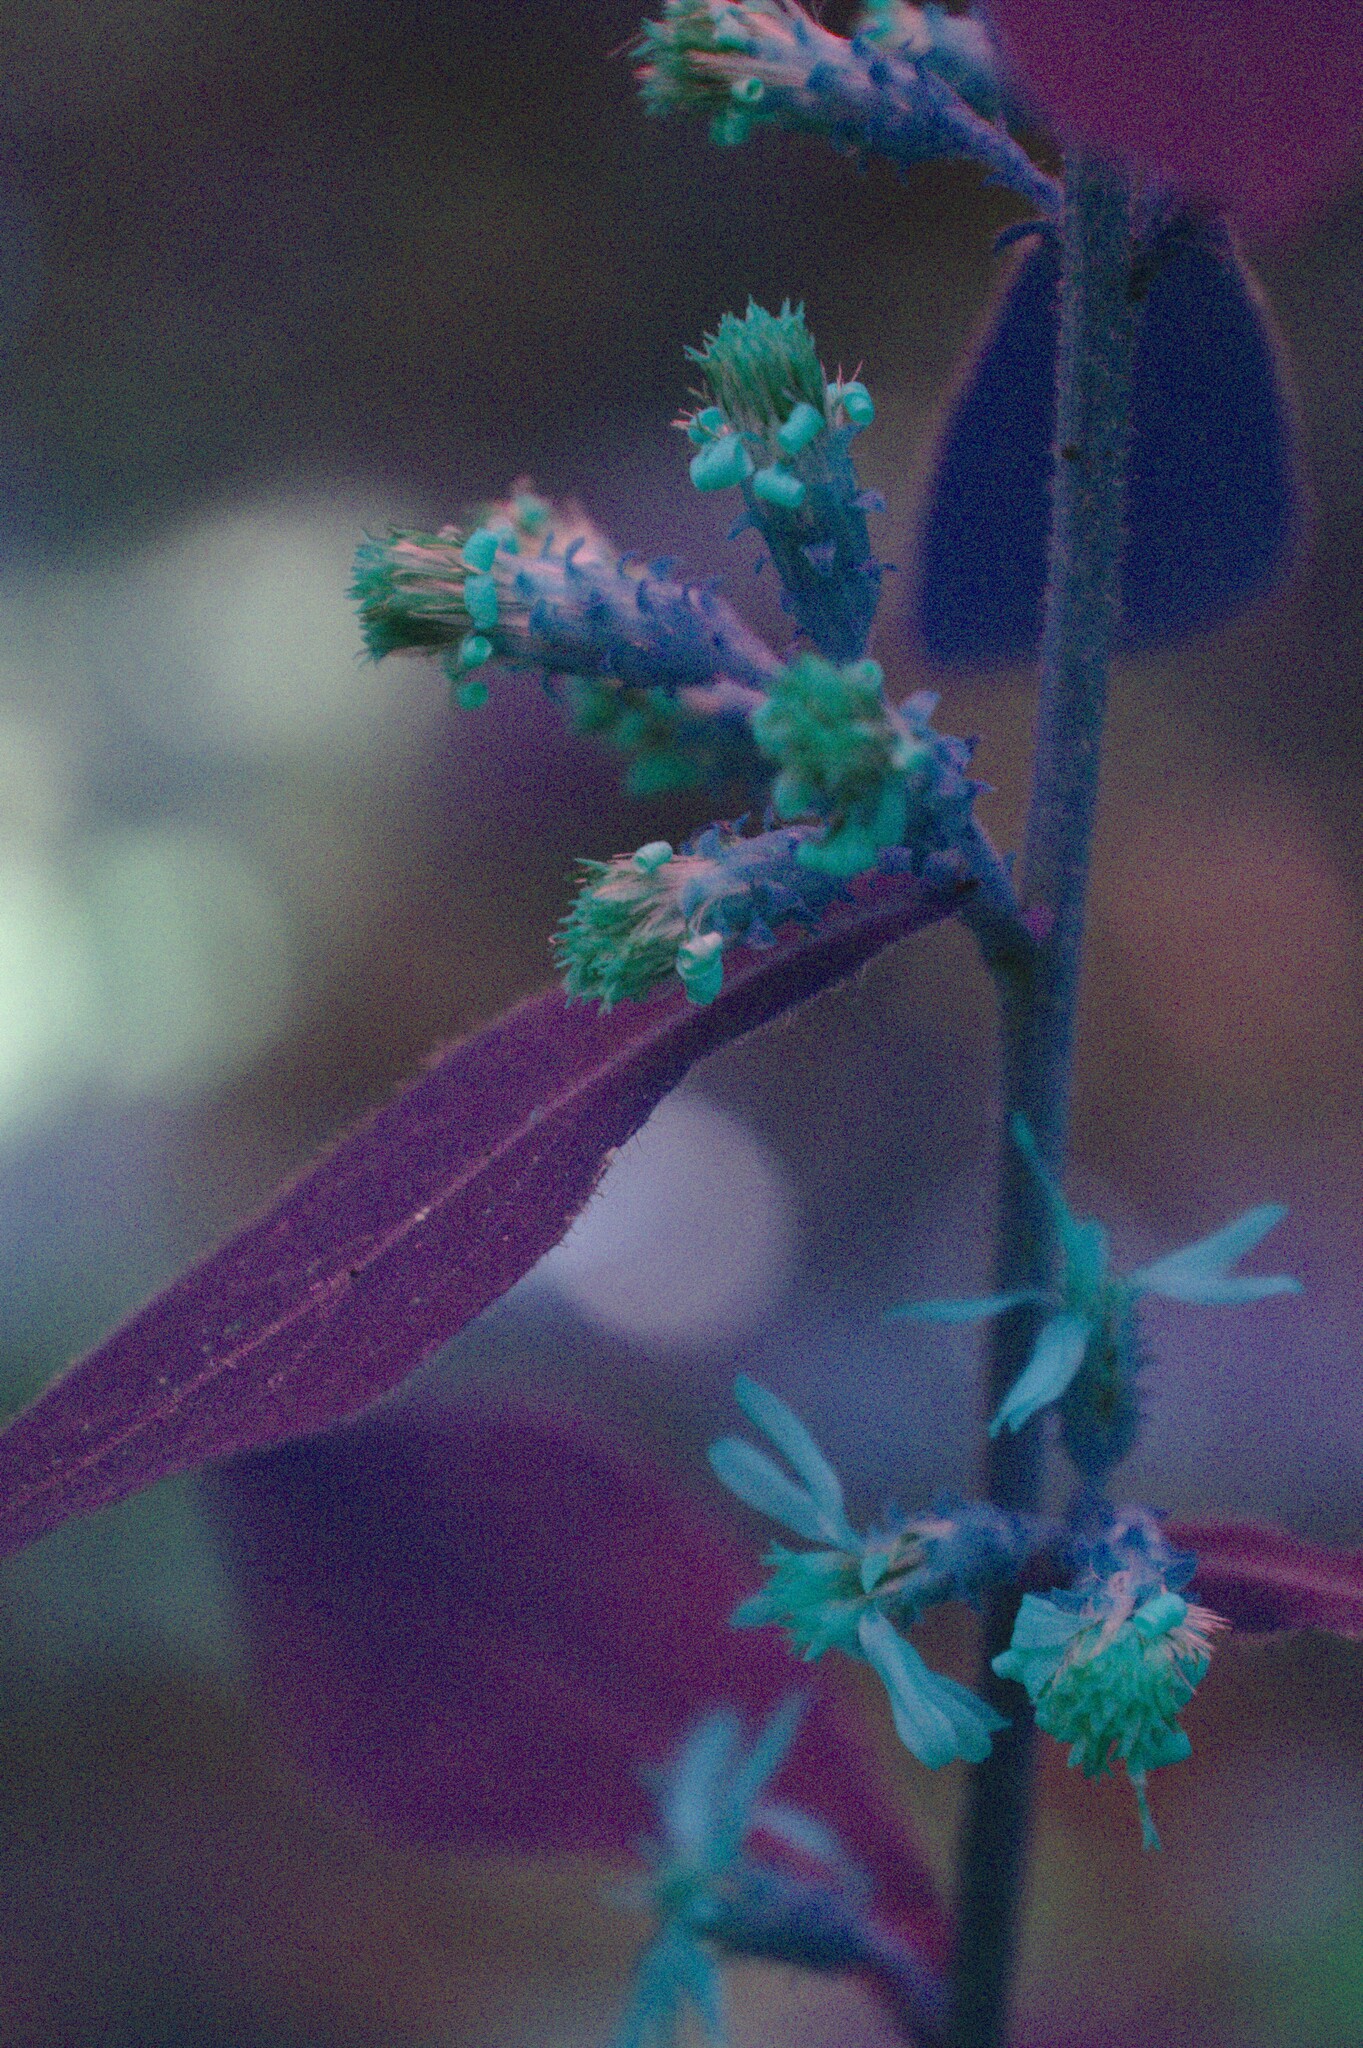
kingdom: Plantae
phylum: Tracheophyta
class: Magnoliopsida
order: Asterales
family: Asteraceae
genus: Solidago
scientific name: Solidago squarrosa
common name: Stout goldenrod
